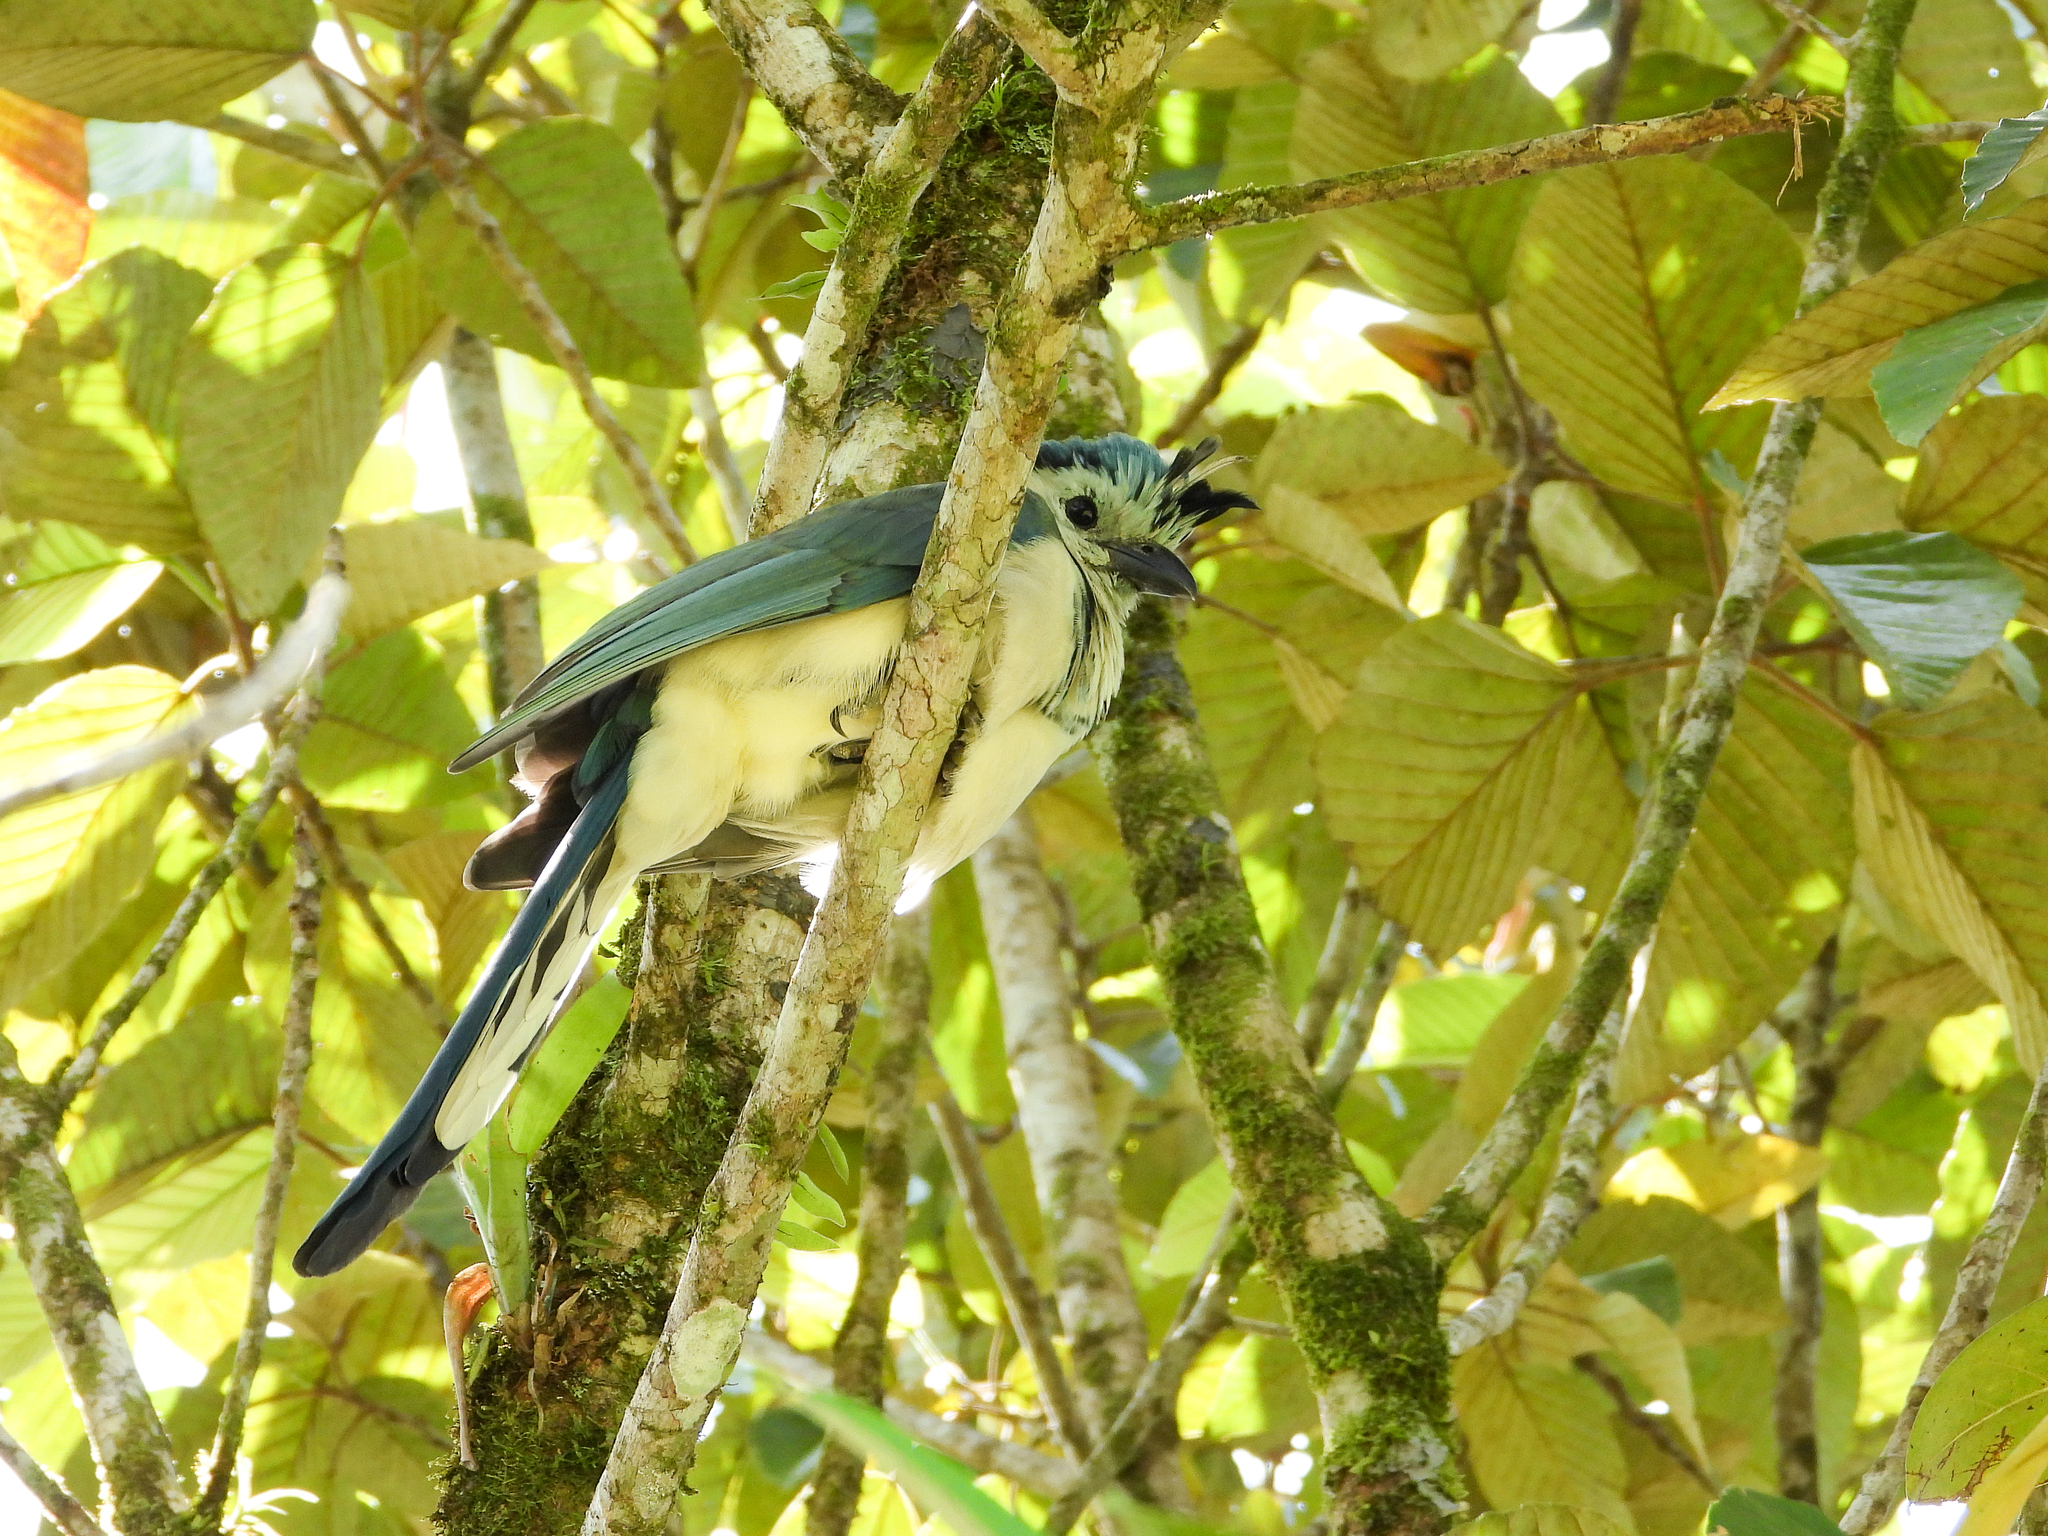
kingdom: Animalia
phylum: Chordata
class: Aves
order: Passeriformes
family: Corvidae
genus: Calocitta
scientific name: Calocitta formosa
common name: White-throated magpie-jay
